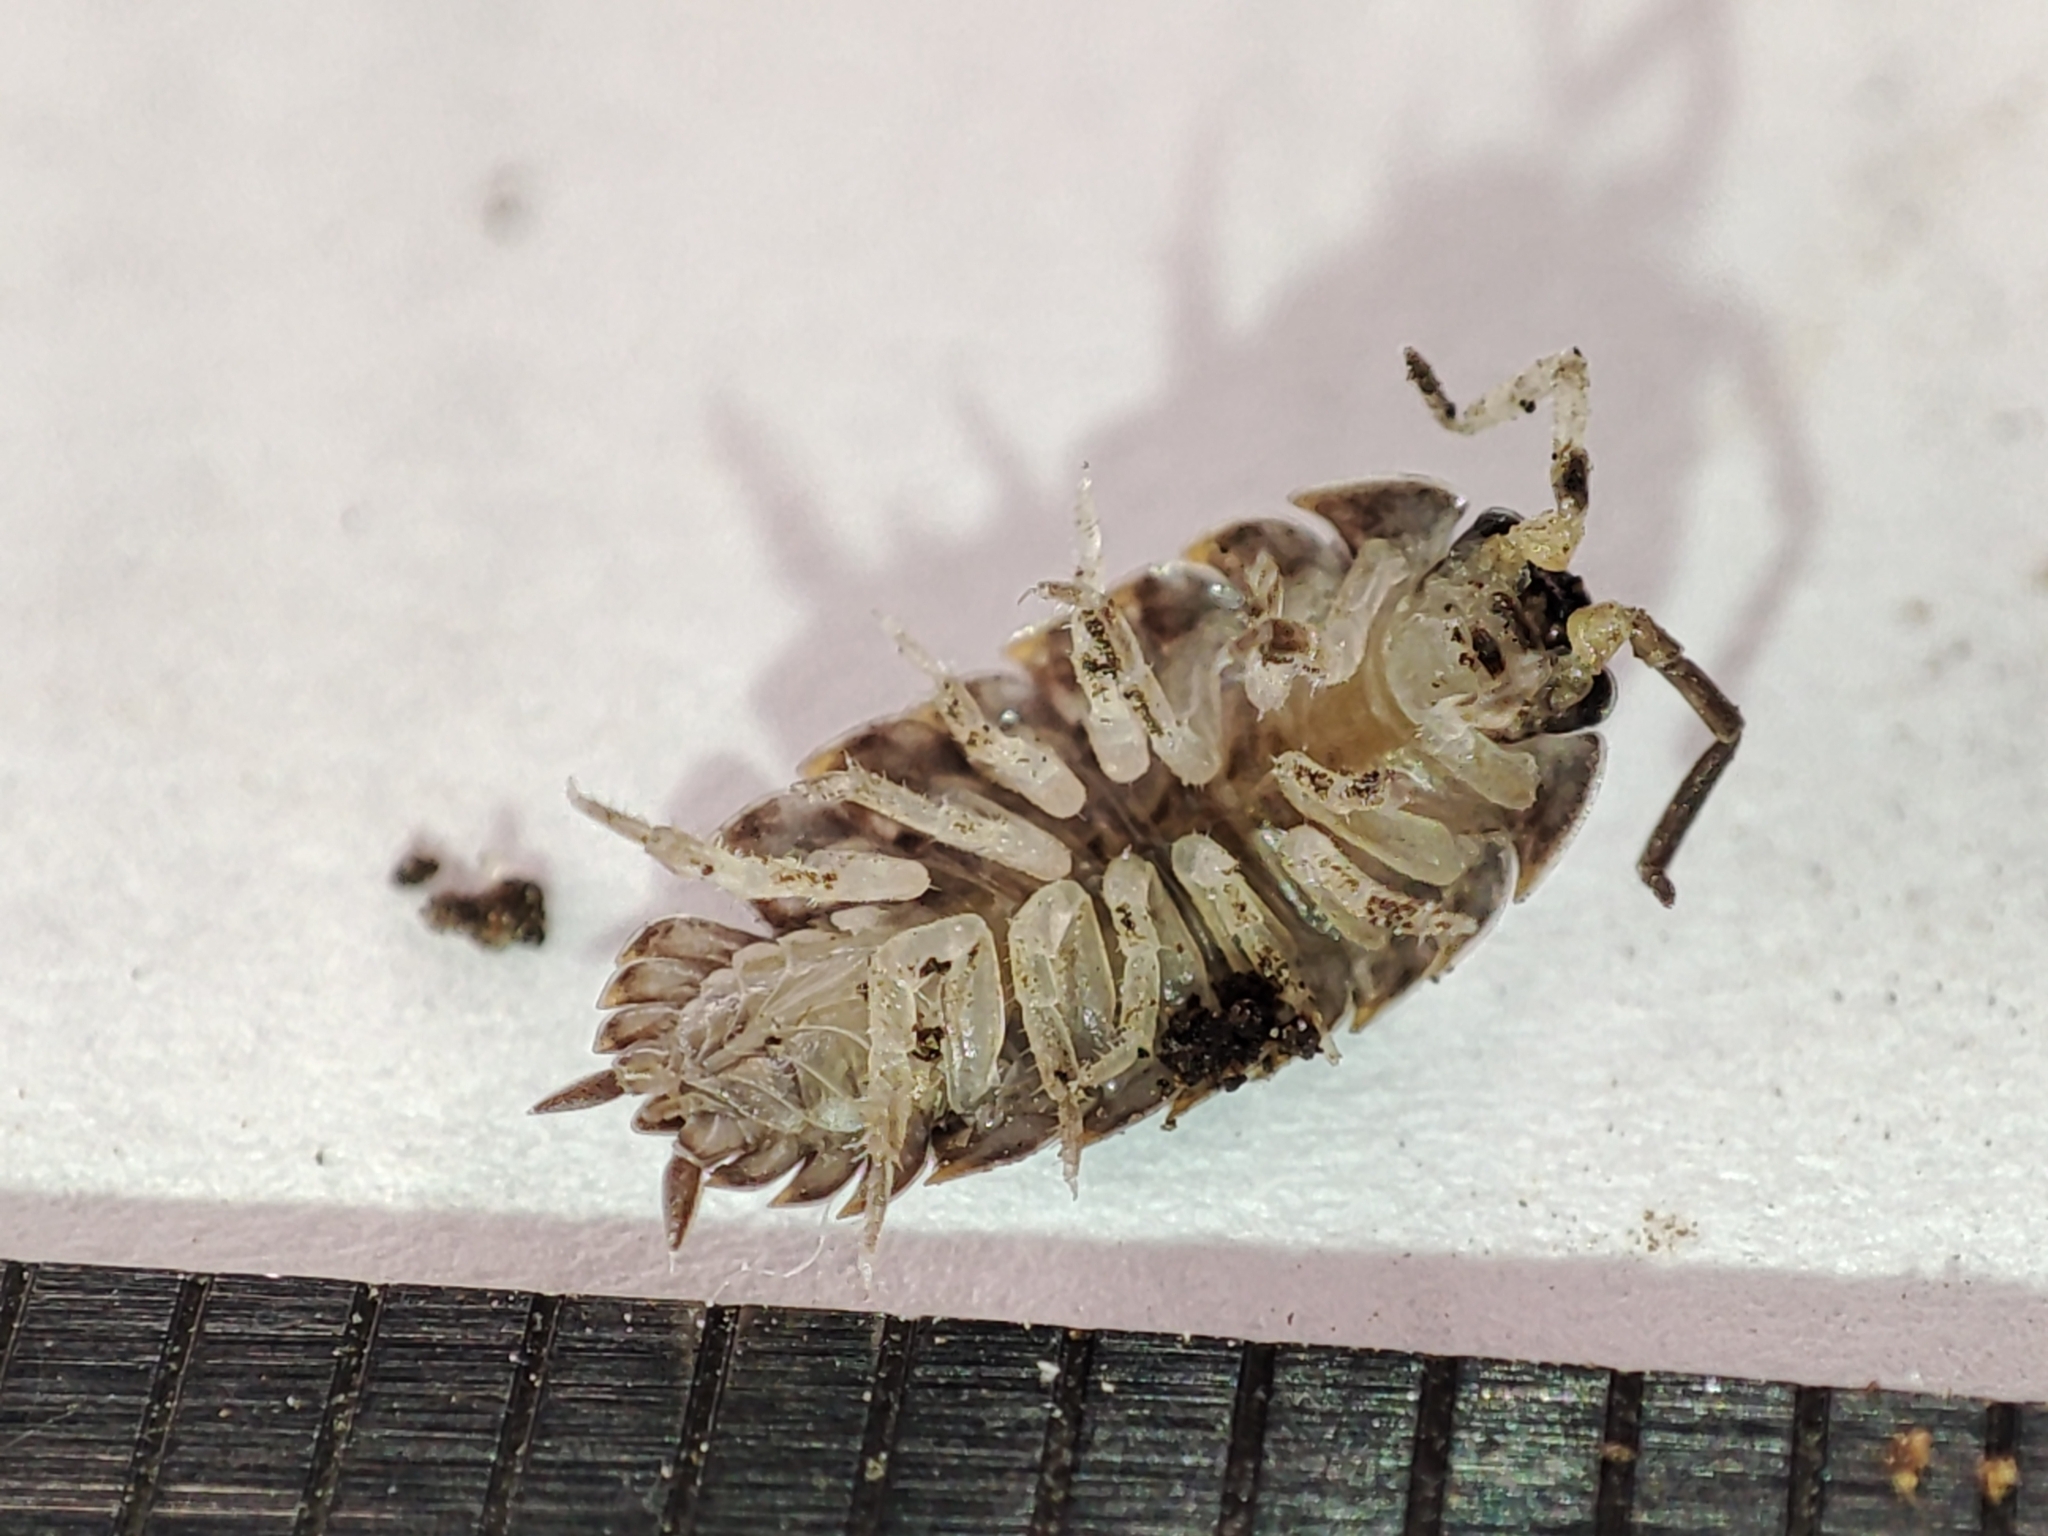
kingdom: Animalia
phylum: Arthropoda
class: Malacostraca
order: Isopoda
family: Trachelipodidae
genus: Trachelipus
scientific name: Trachelipus rathkii
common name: Isopod
